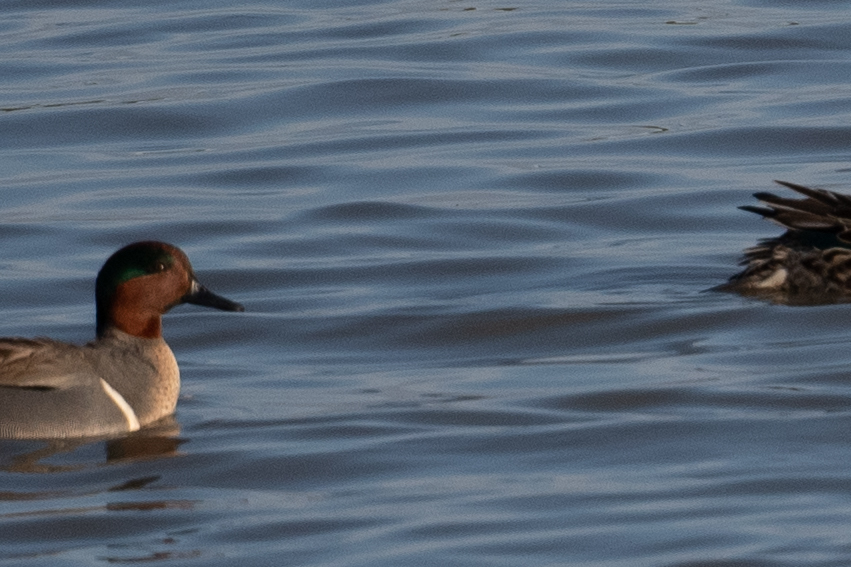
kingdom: Animalia
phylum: Chordata
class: Aves
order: Anseriformes
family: Anatidae
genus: Anas
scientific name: Anas crecca
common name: Eurasian teal
